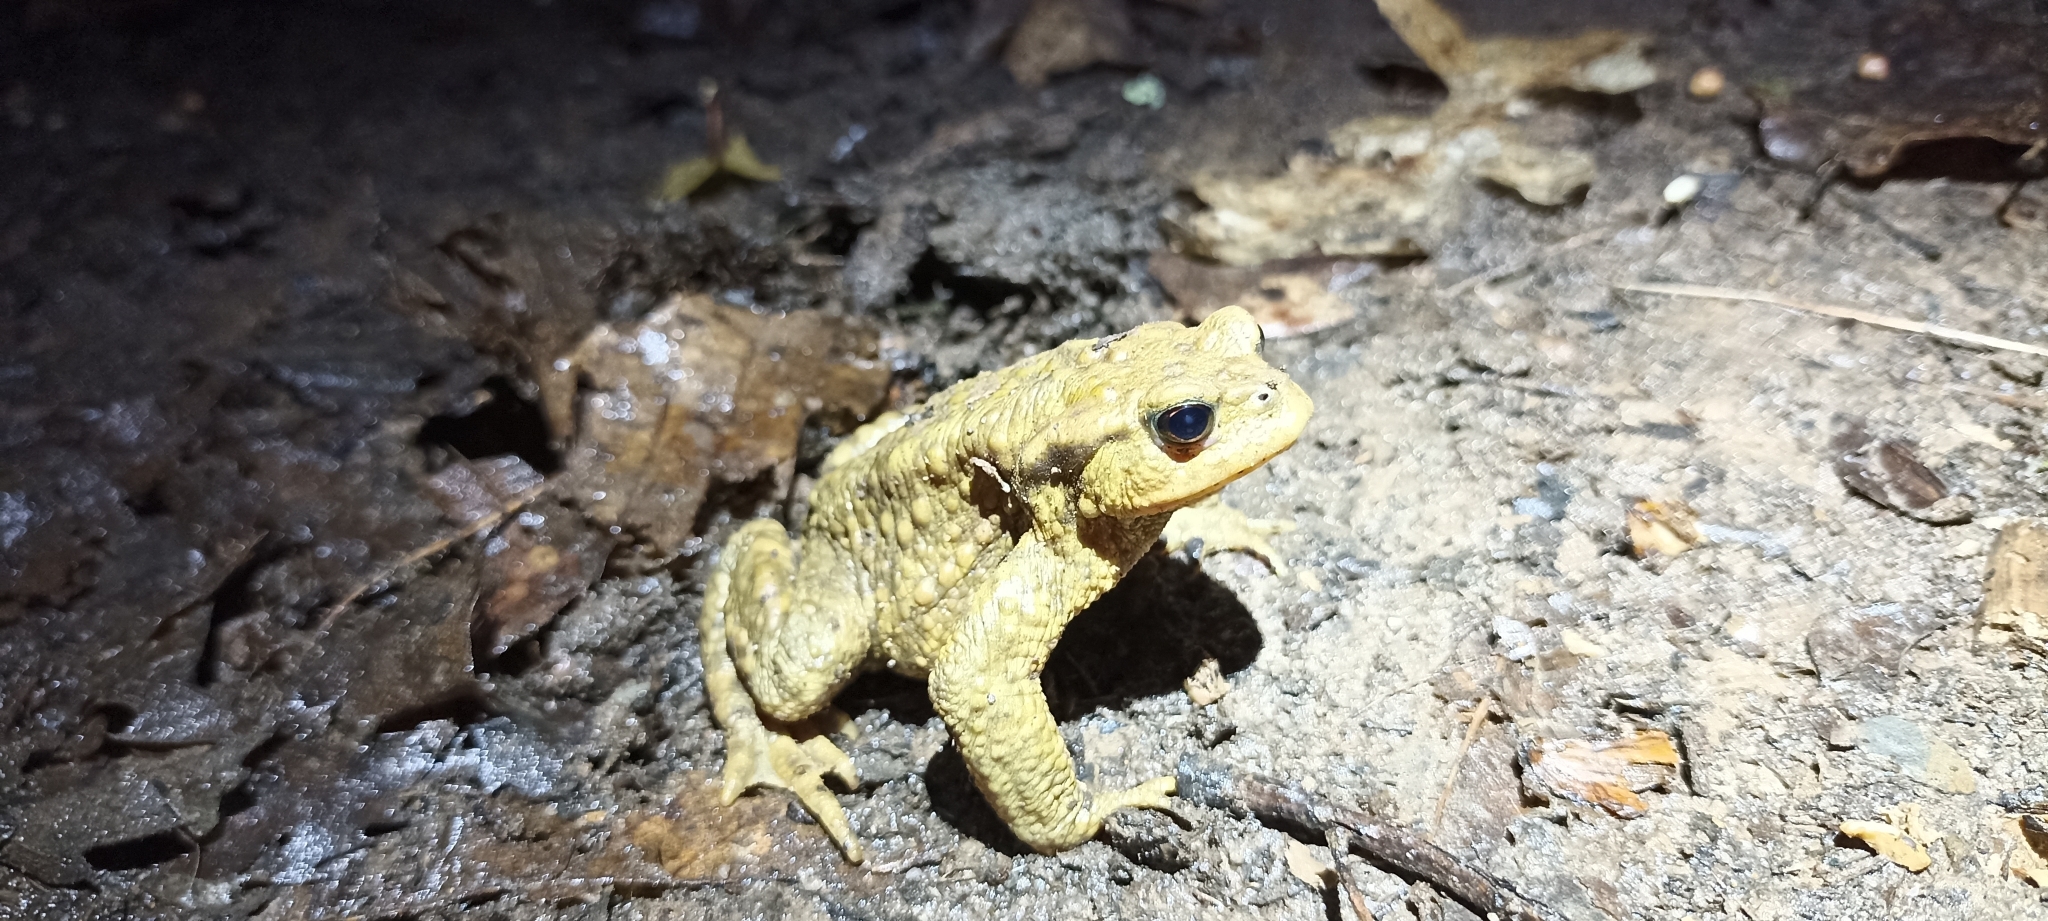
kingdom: Animalia
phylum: Chordata
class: Amphibia
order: Anura
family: Bufonidae
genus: Bufo
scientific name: Bufo spinosus
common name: Western common toad
